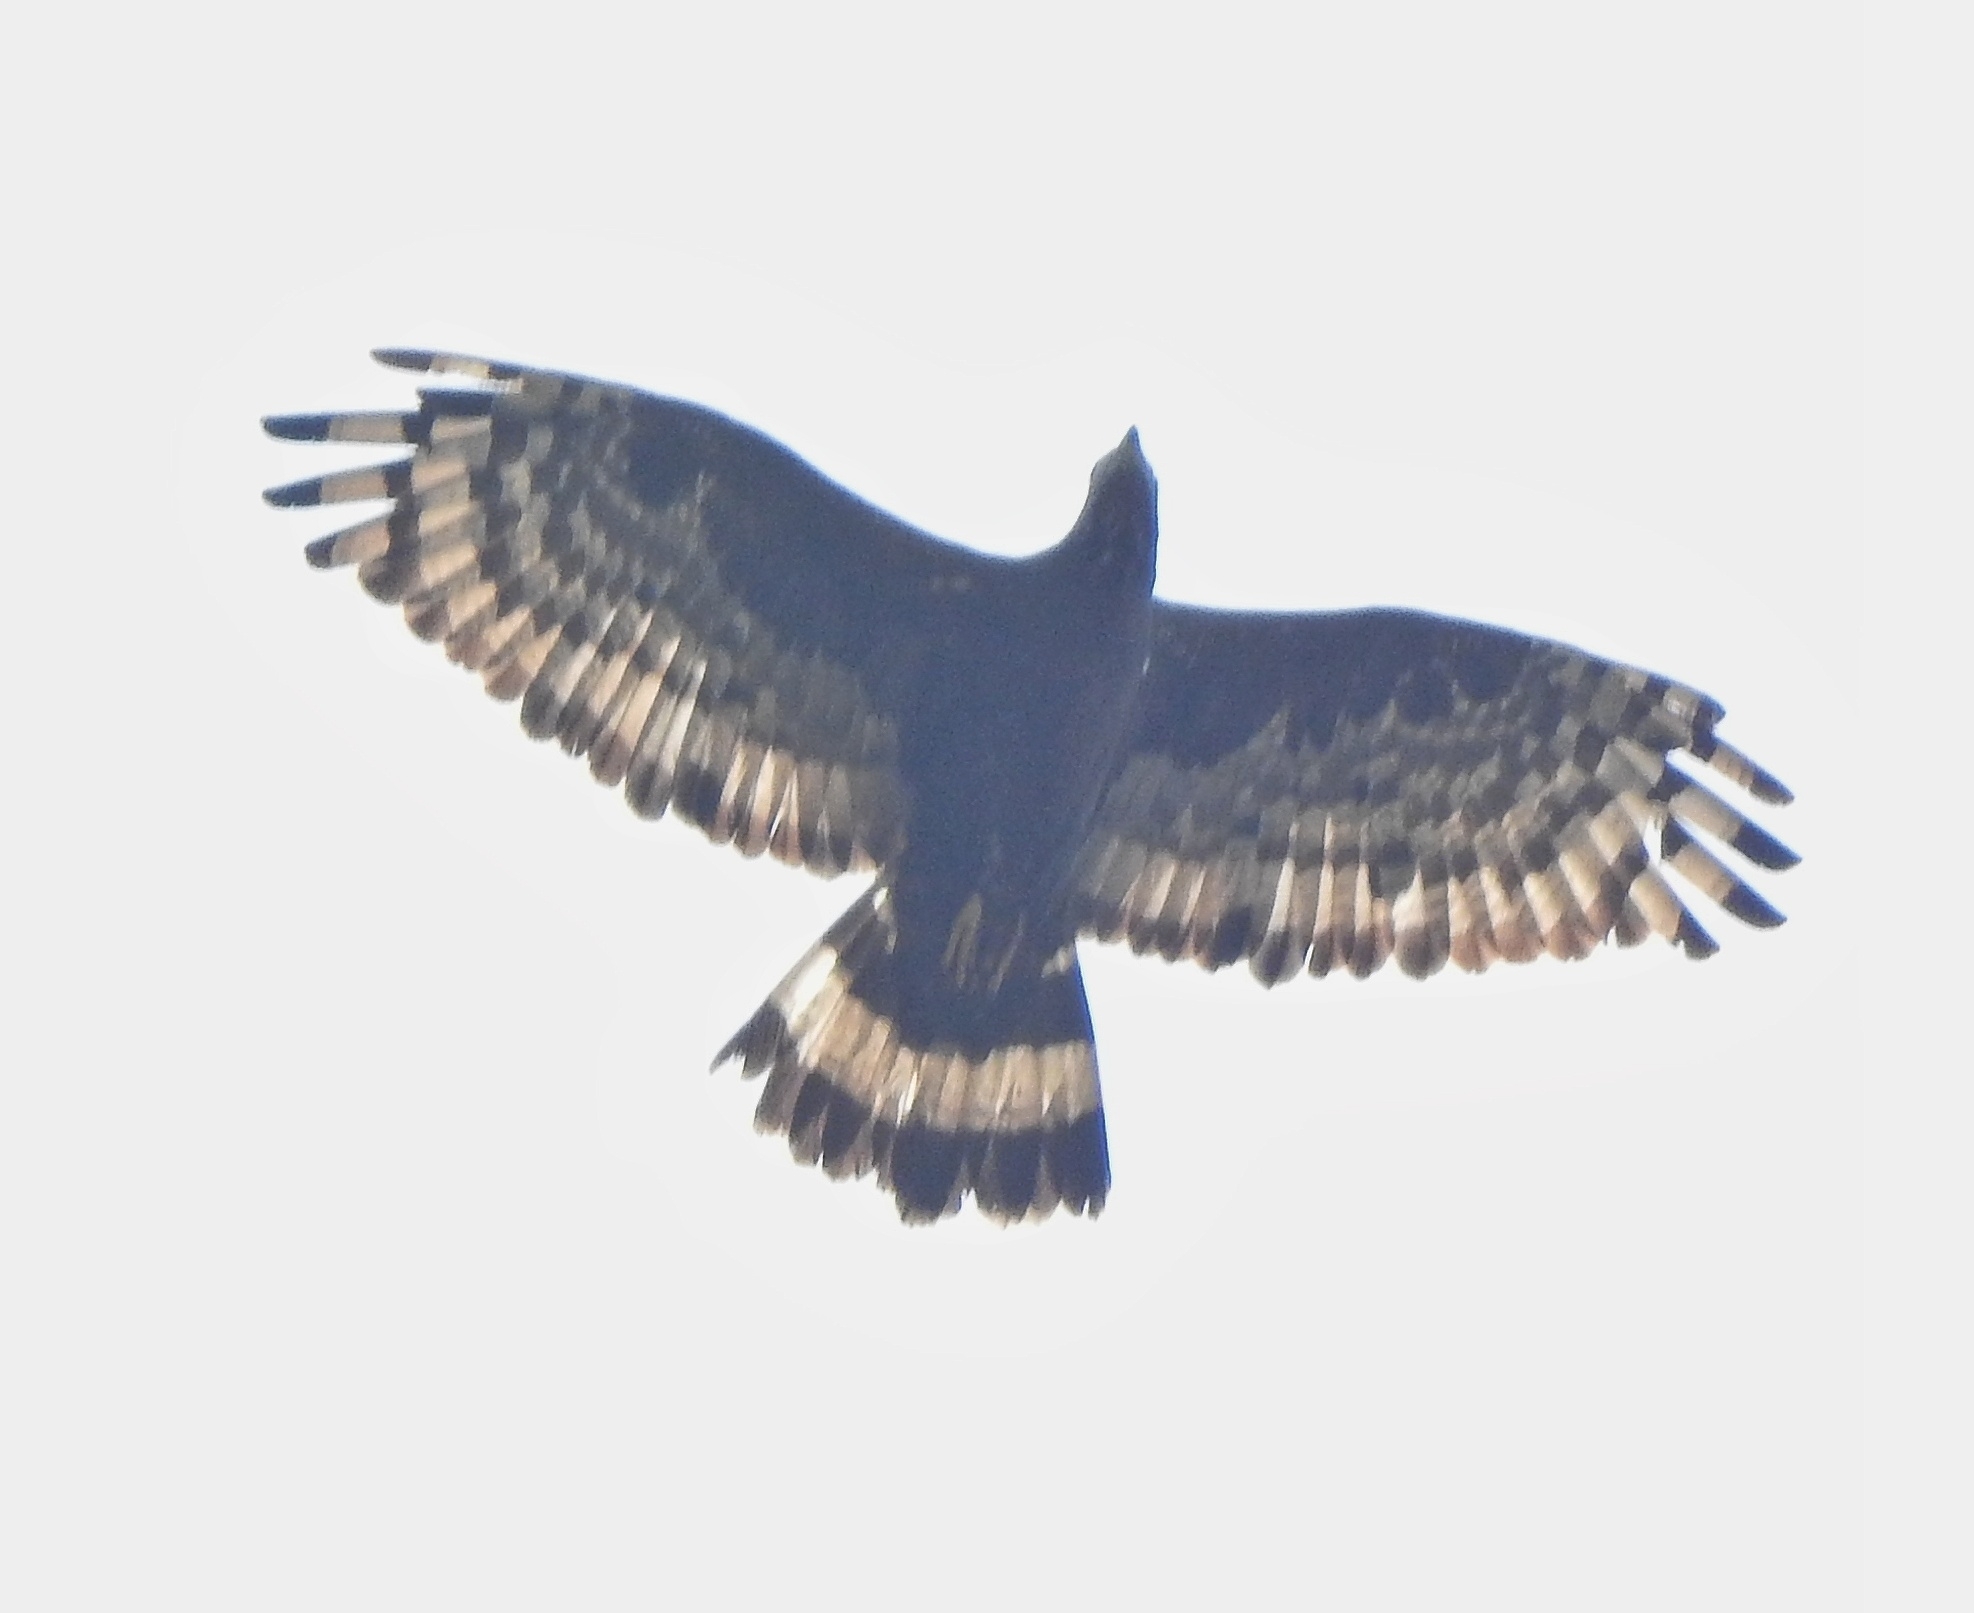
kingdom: Animalia
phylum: Chordata
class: Aves
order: Accipitriformes
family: Accipitridae
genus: Pernis
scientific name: Pernis ptilorhynchus
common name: Crested honey buzzard
